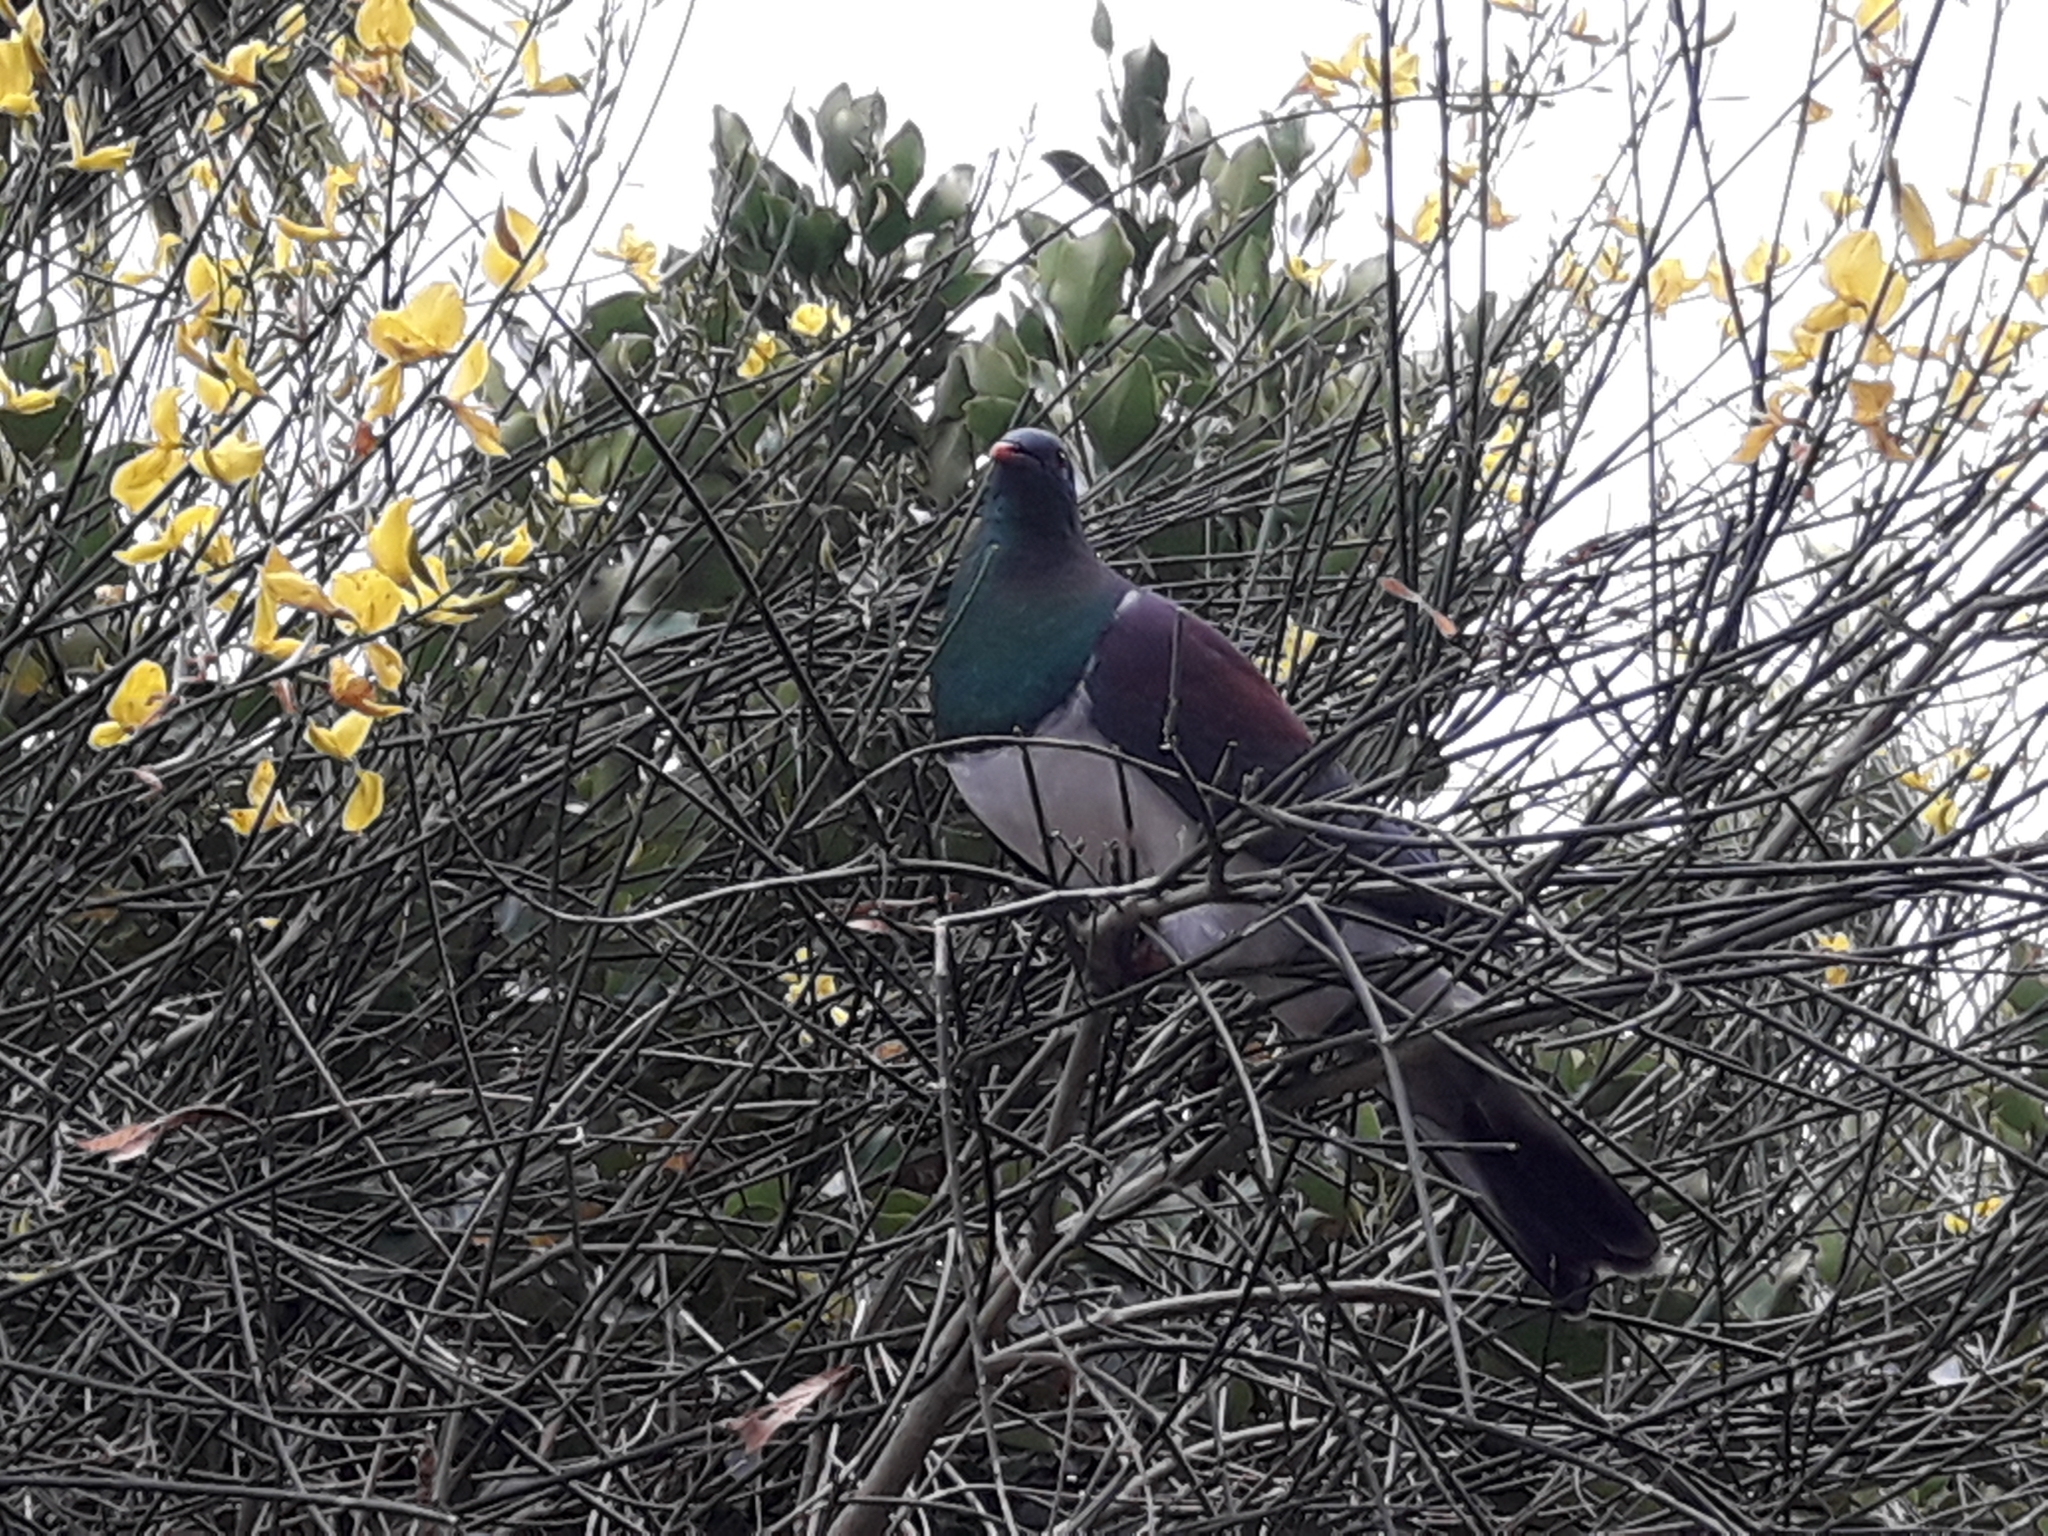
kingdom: Animalia
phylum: Chordata
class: Aves
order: Columbiformes
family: Columbidae
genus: Hemiphaga
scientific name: Hemiphaga novaeseelandiae
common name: New zealand pigeon
